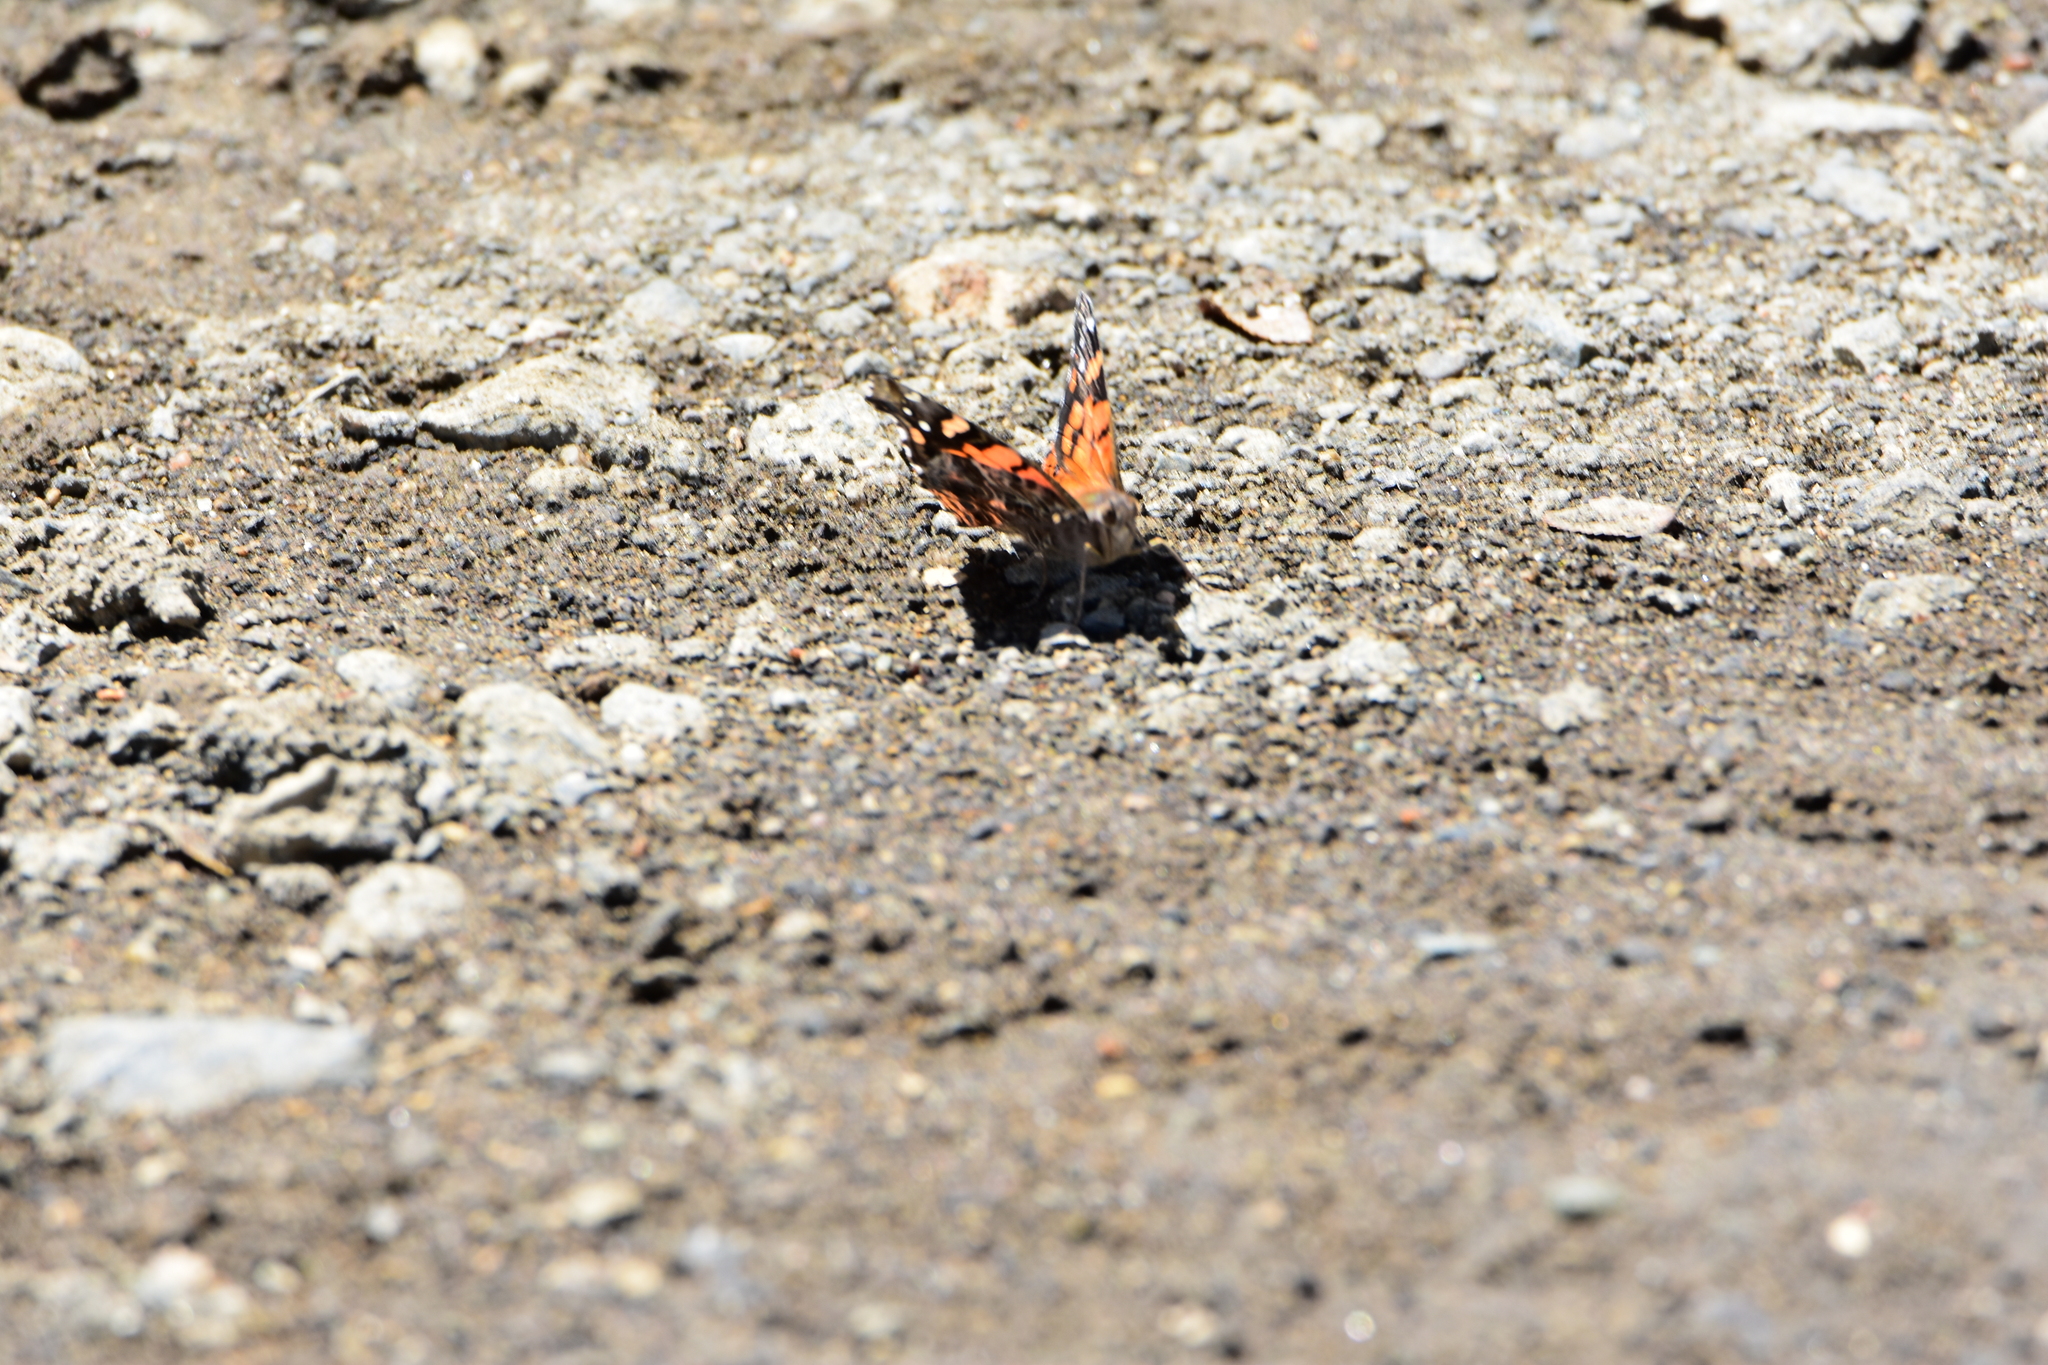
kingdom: Animalia
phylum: Arthropoda
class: Insecta
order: Lepidoptera
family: Nymphalidae
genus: Vanessa
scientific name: Vanessa carye
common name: Subtropical lady
